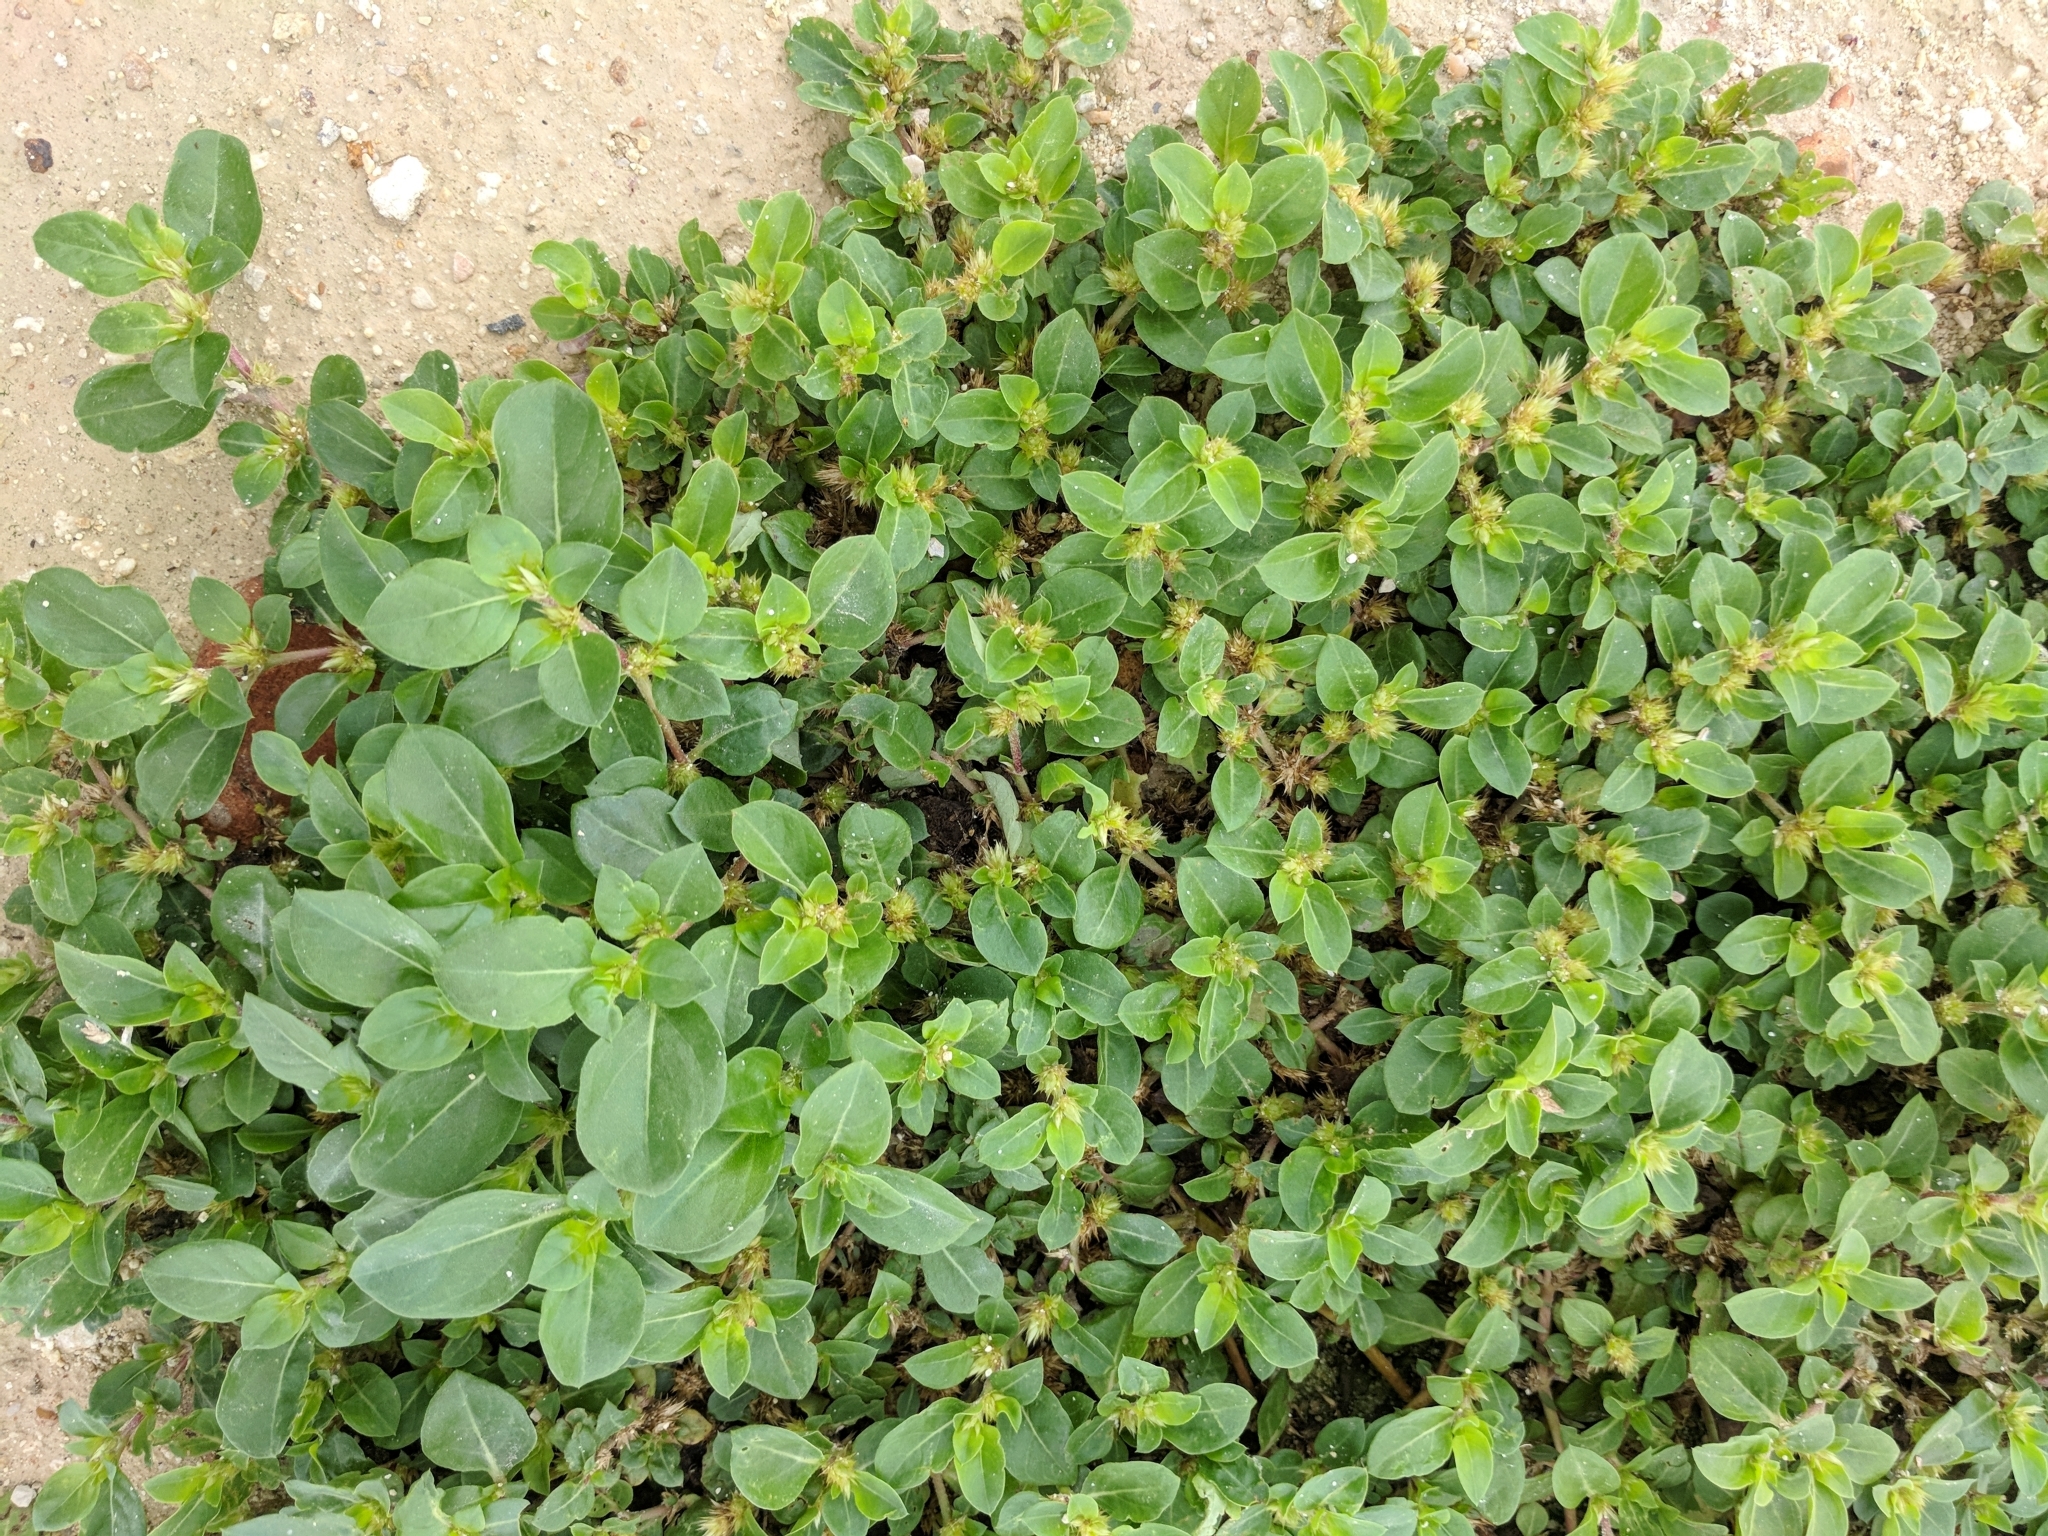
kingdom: Plantae
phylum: Tracheophyta
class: Magnoliopsida
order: Caryophyllales
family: Amaranthaceae
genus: Alternanthera
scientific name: Alternanthera pungens
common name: Khakiweed
